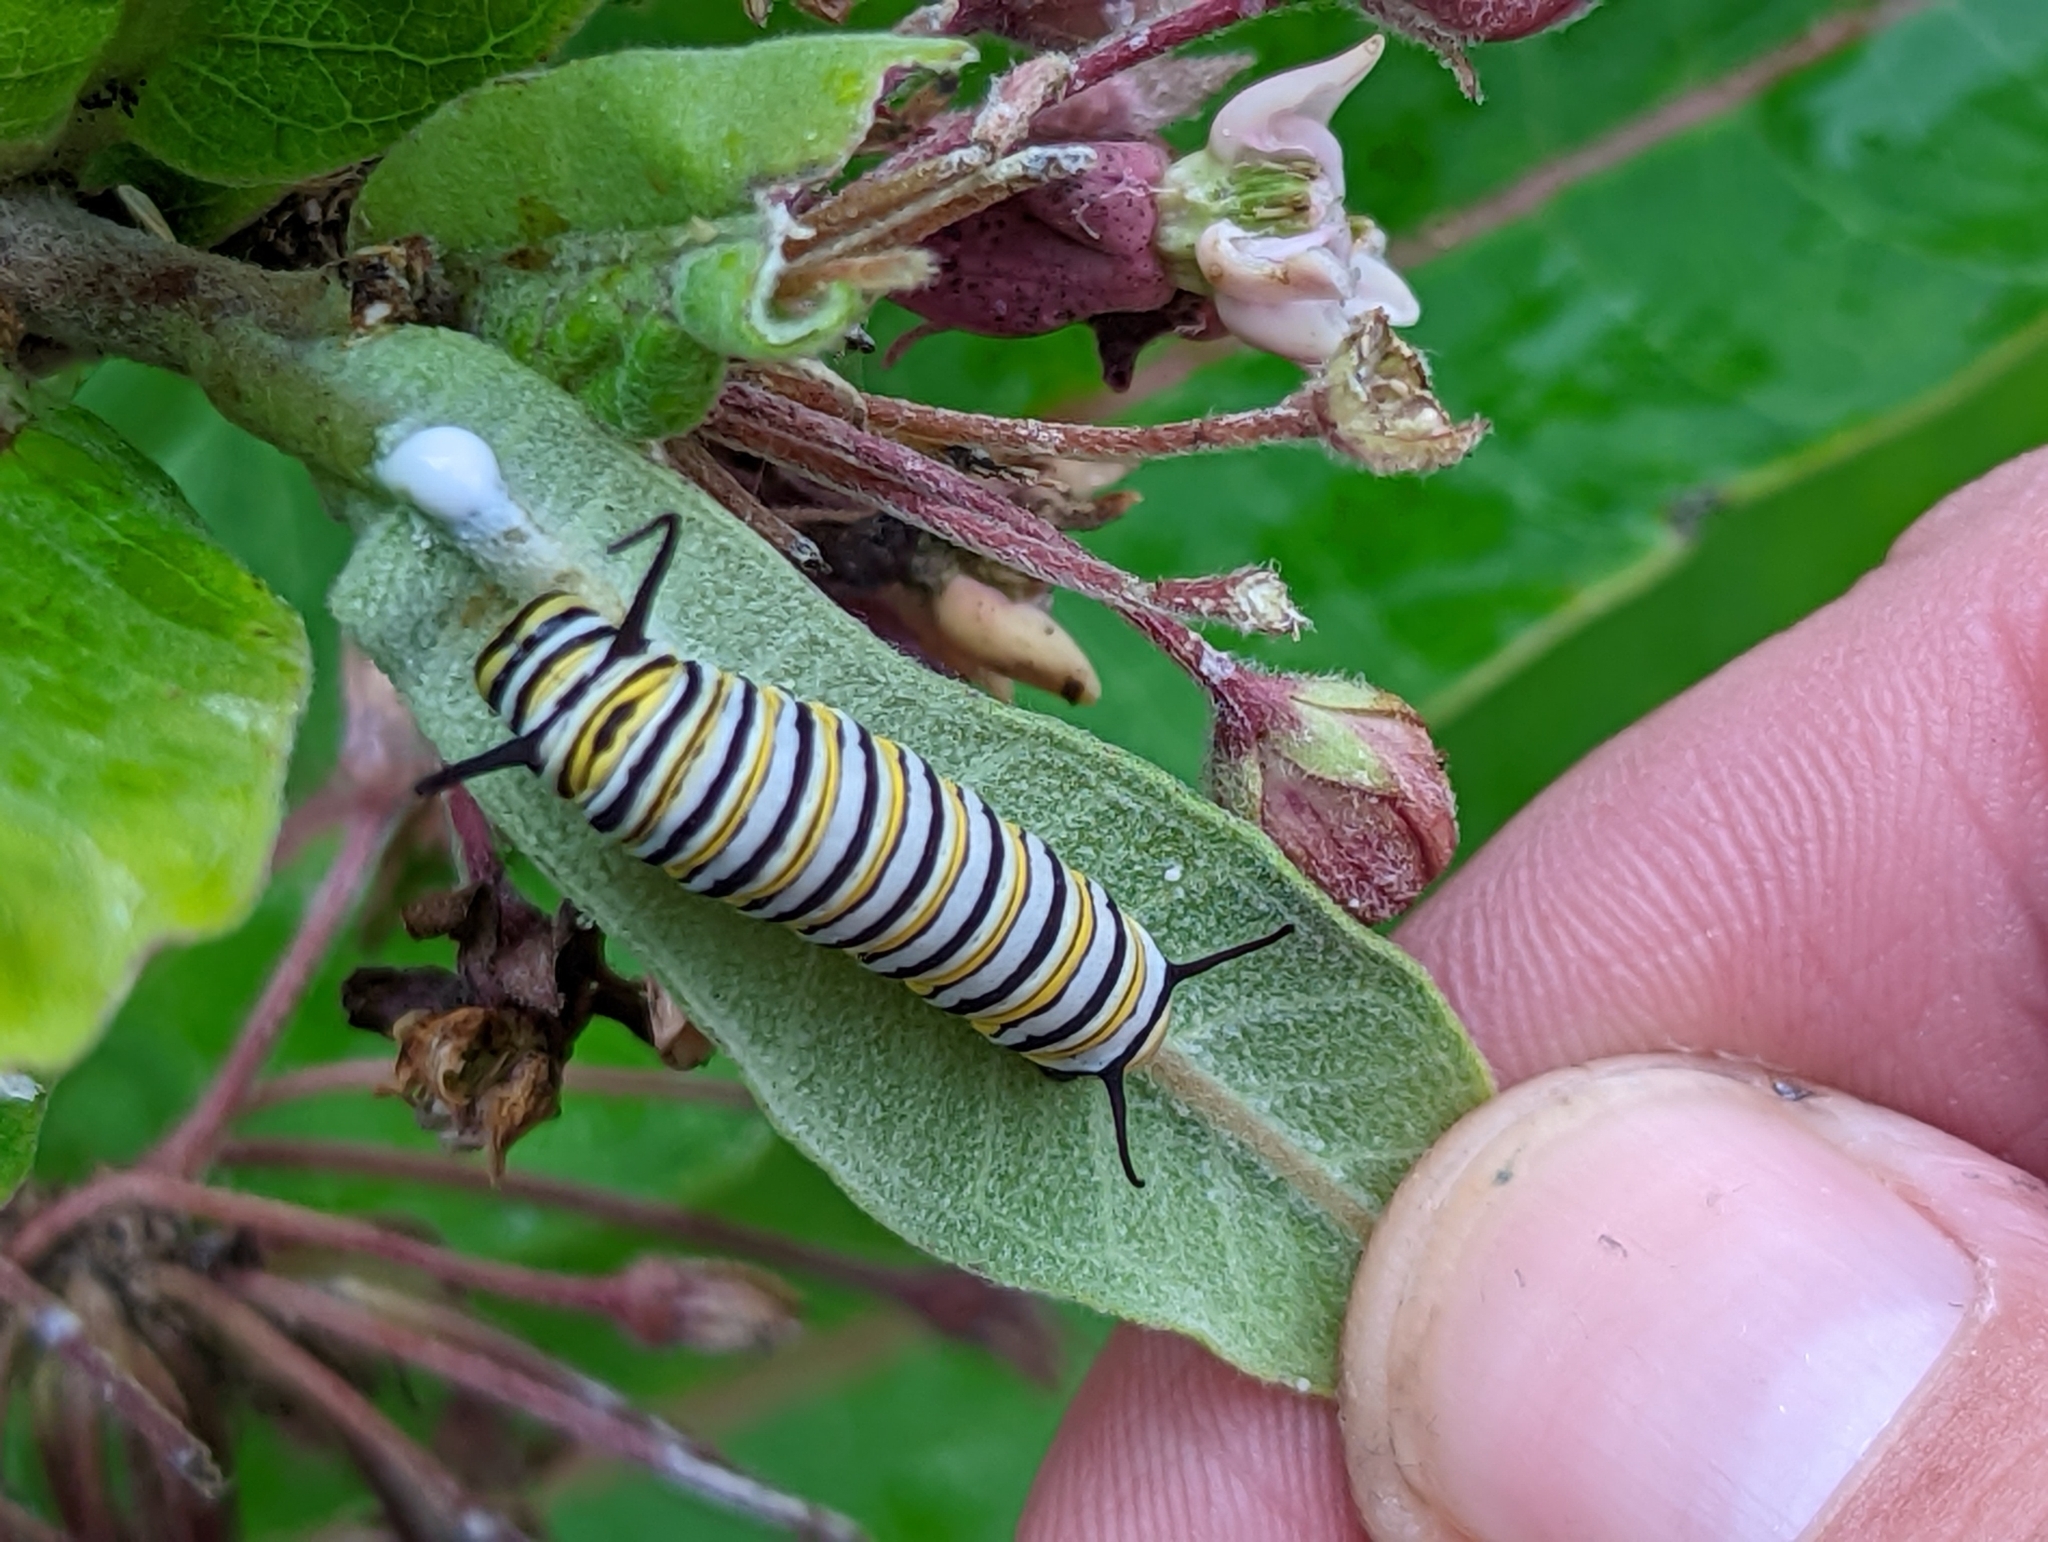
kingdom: Animalia
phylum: Arthropoda
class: Insecta
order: Lepidoptera
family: Nymphalidae
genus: Danaus
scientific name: Danaus plexippus
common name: Monarch
